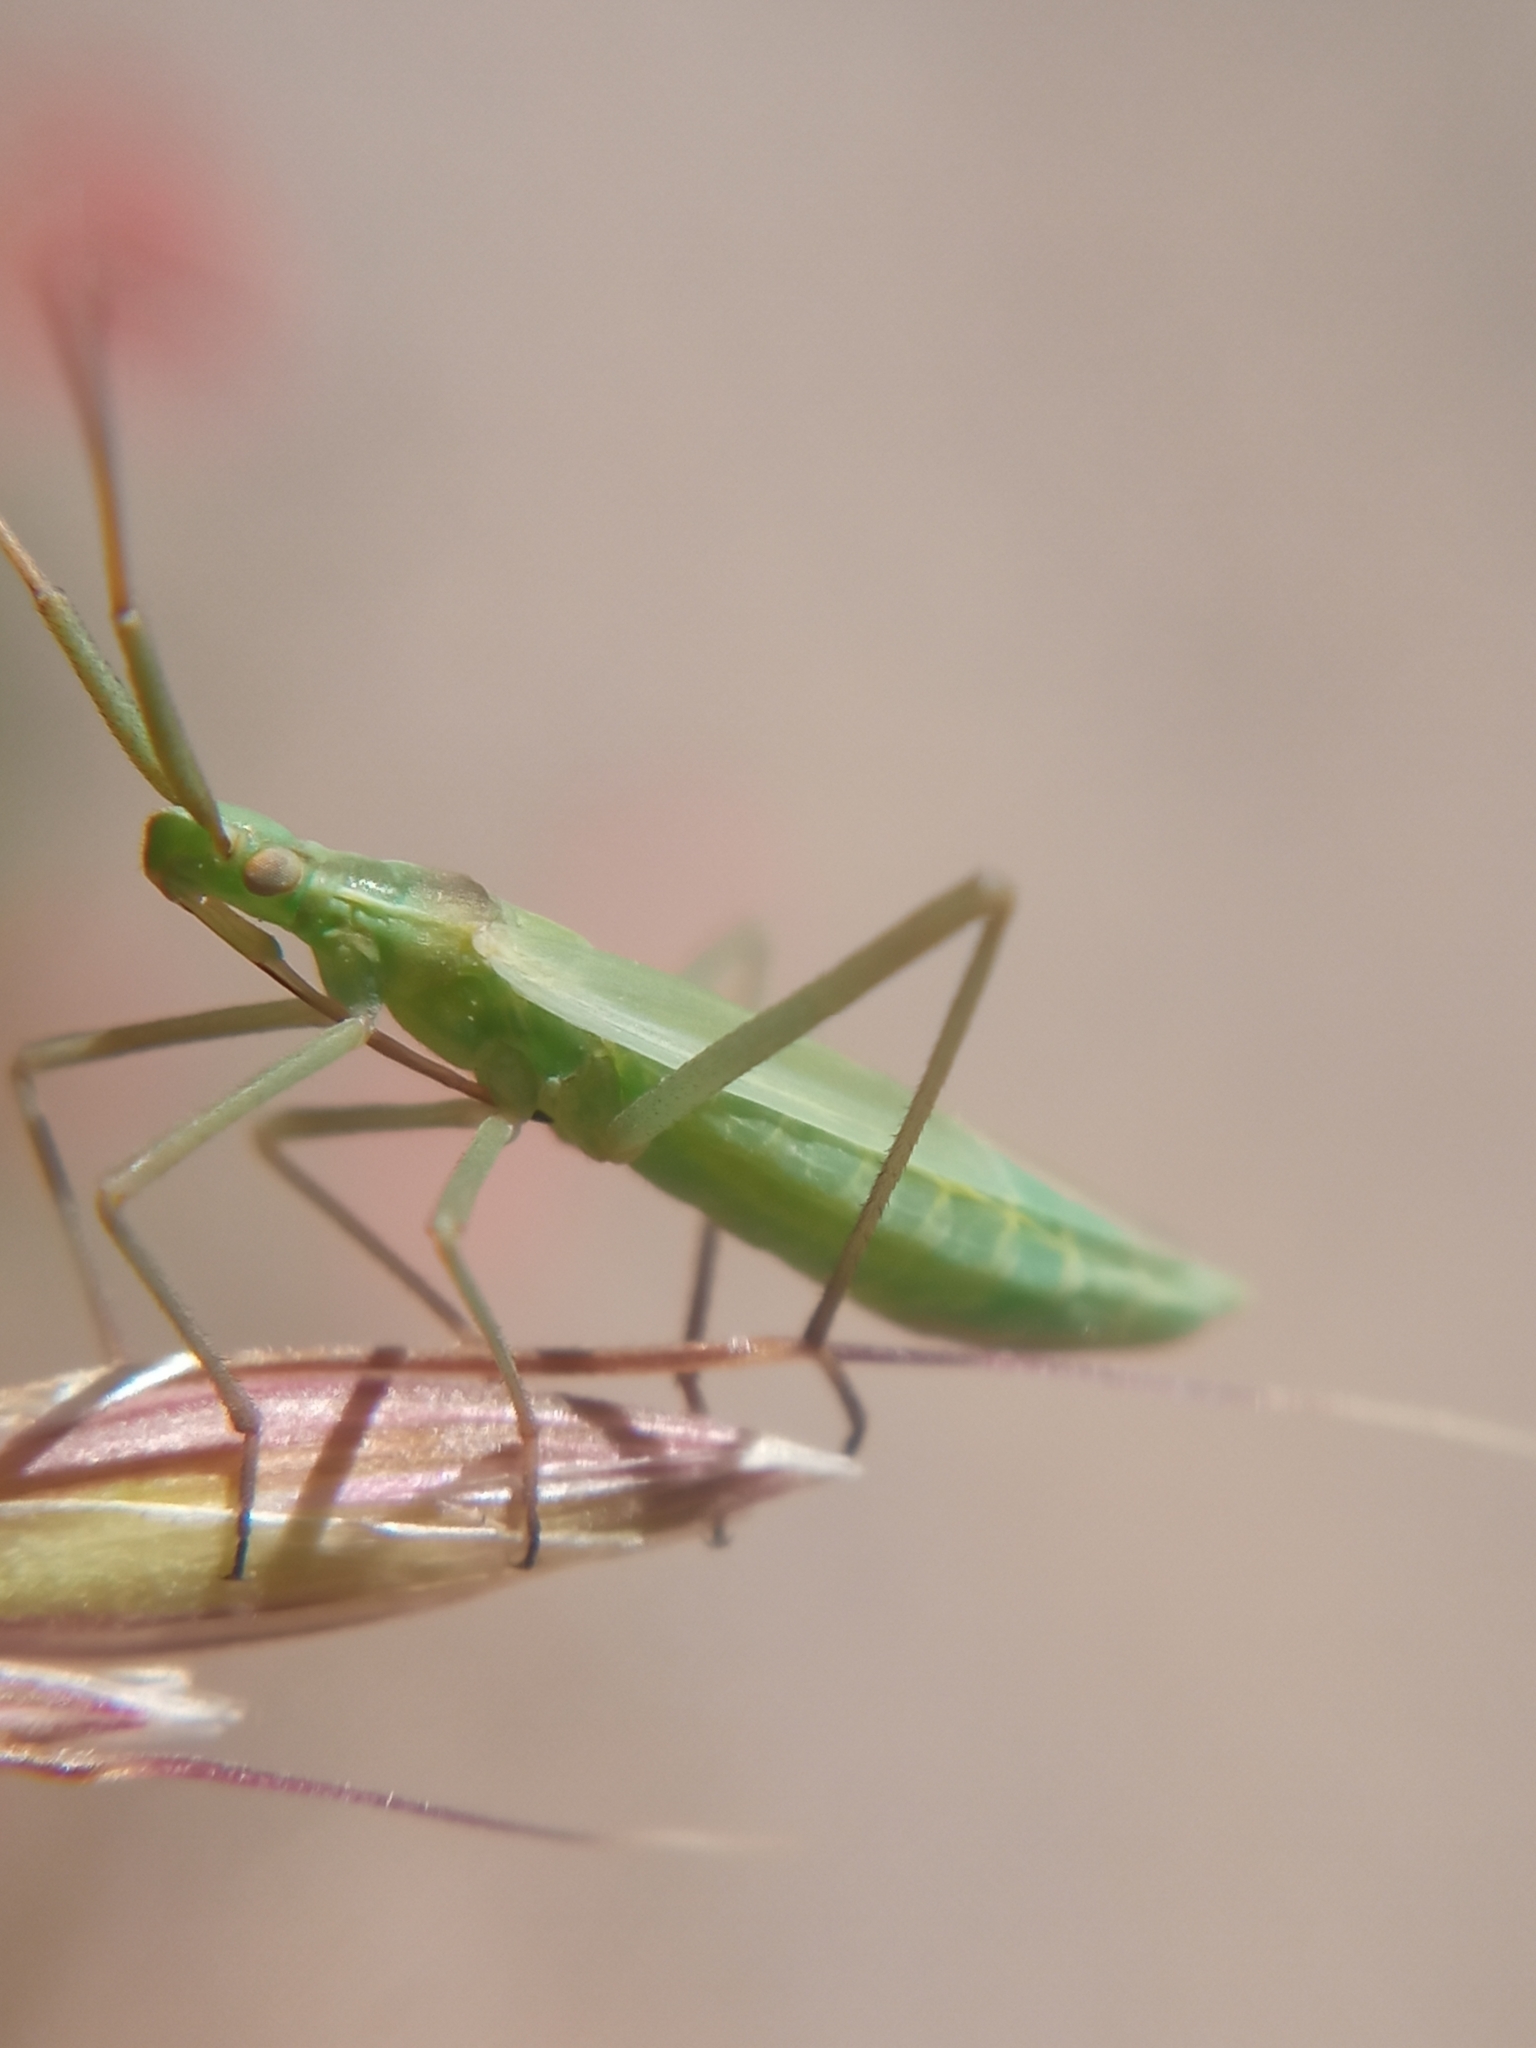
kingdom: Animalia
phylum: Arthropoda
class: Insecta
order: Hemiptera
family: Miridae
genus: Megaloceroea
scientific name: Megaloceroea recticornis
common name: Plant bug
